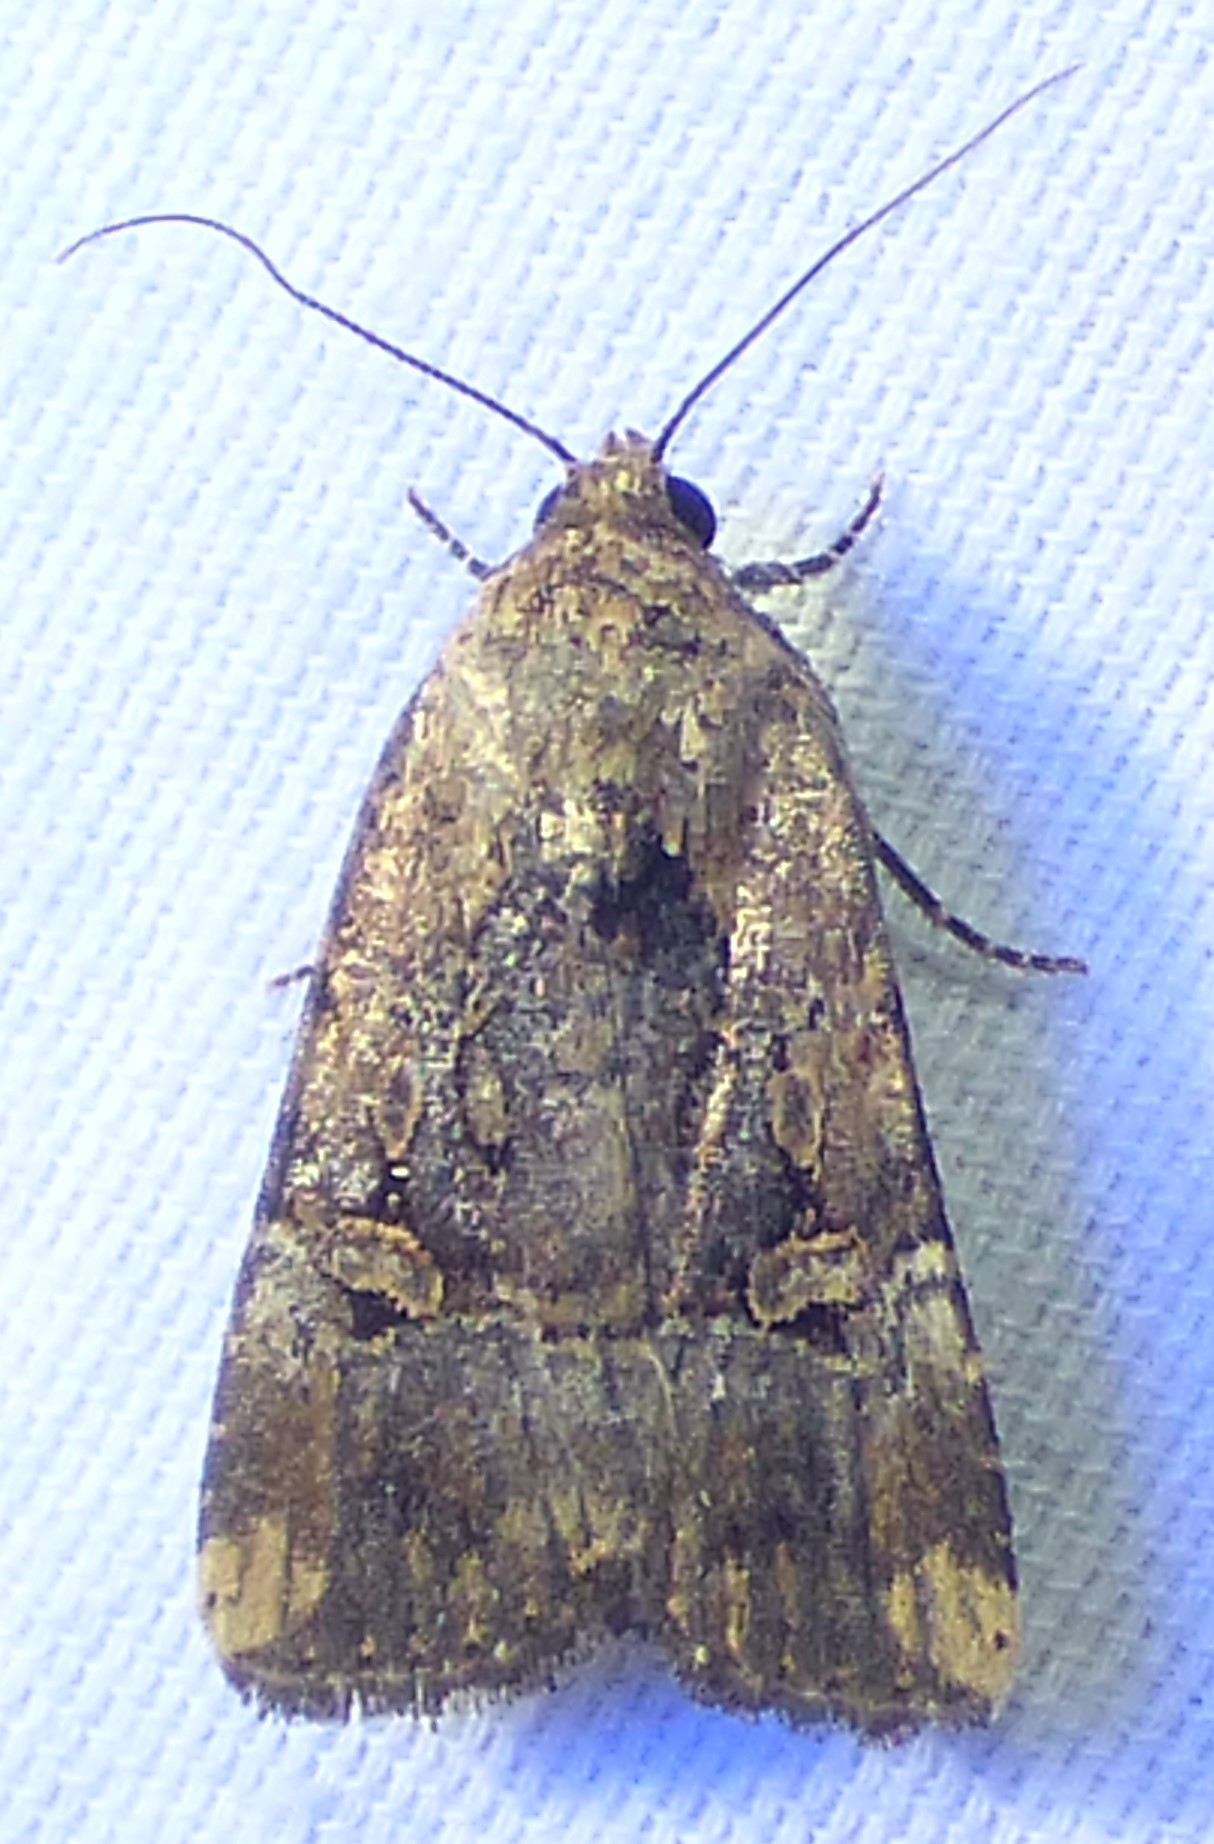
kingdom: Animalia
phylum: Arthropoda
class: Insecta
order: Lepidoptera
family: Noctuidae
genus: Elaphria
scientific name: Elaphria chalcedonia
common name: Chalcedony midget
